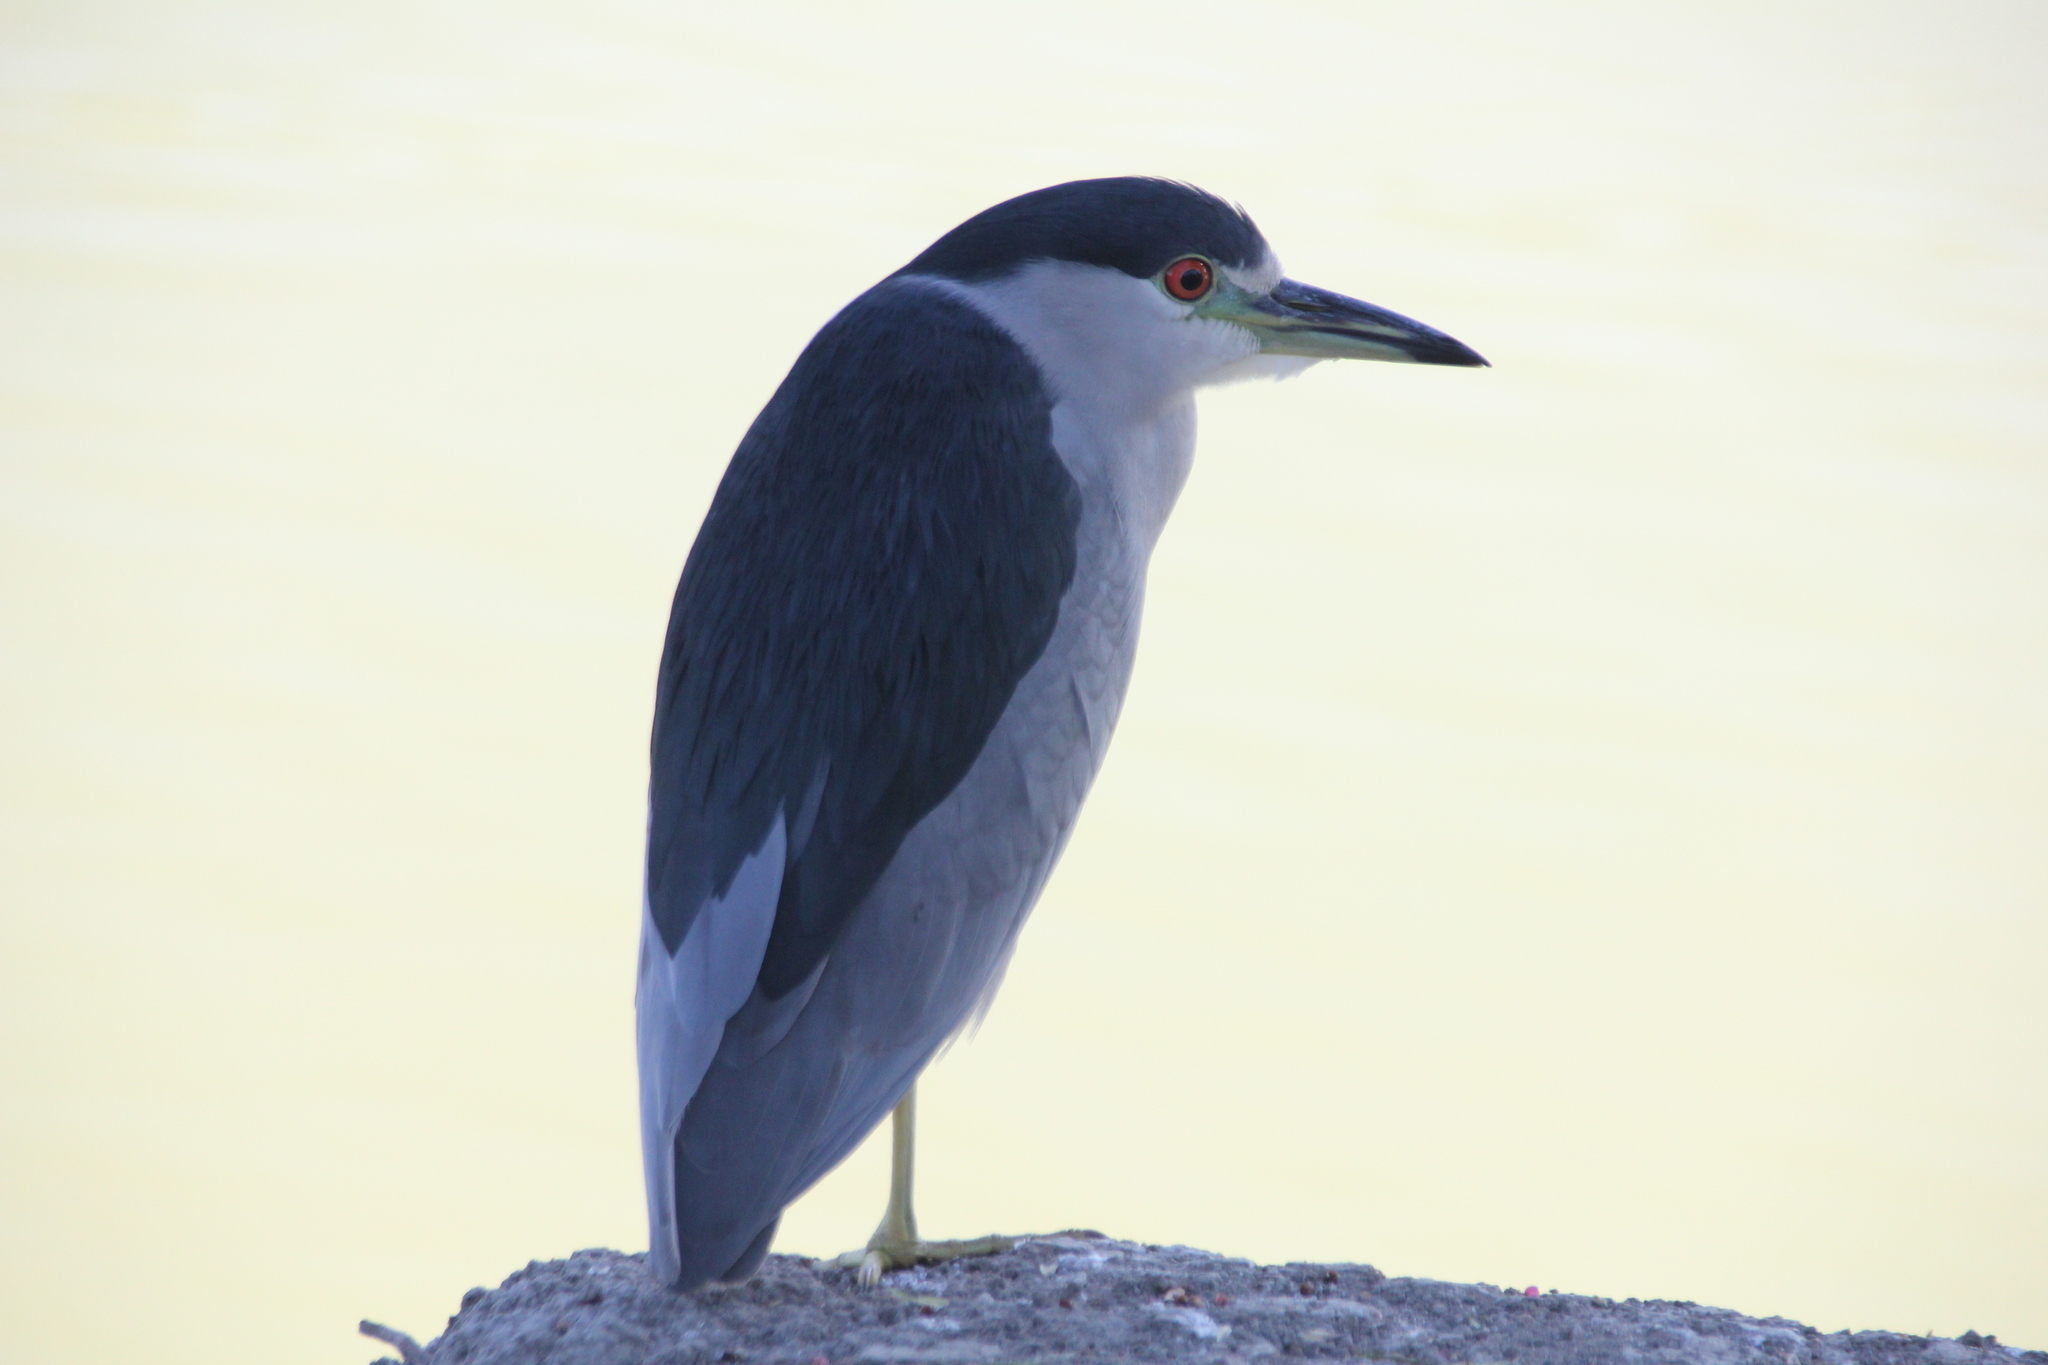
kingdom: Animalia
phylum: Chordata
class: Aves
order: Pelecaniformes
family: Ardeidae
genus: Nycticorax
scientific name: Nycticorax nycticorax
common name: Black-crowned night heron
